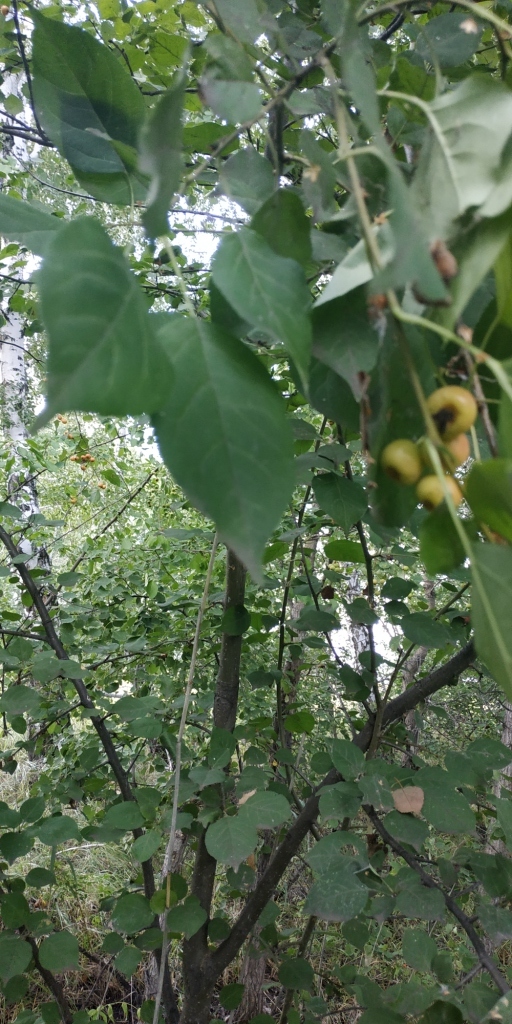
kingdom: Plantae
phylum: Tracheophyta
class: Magnoliopsida
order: Rosales
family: Rosaceae
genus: Malus
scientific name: Malus baccata
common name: Siberian crab
